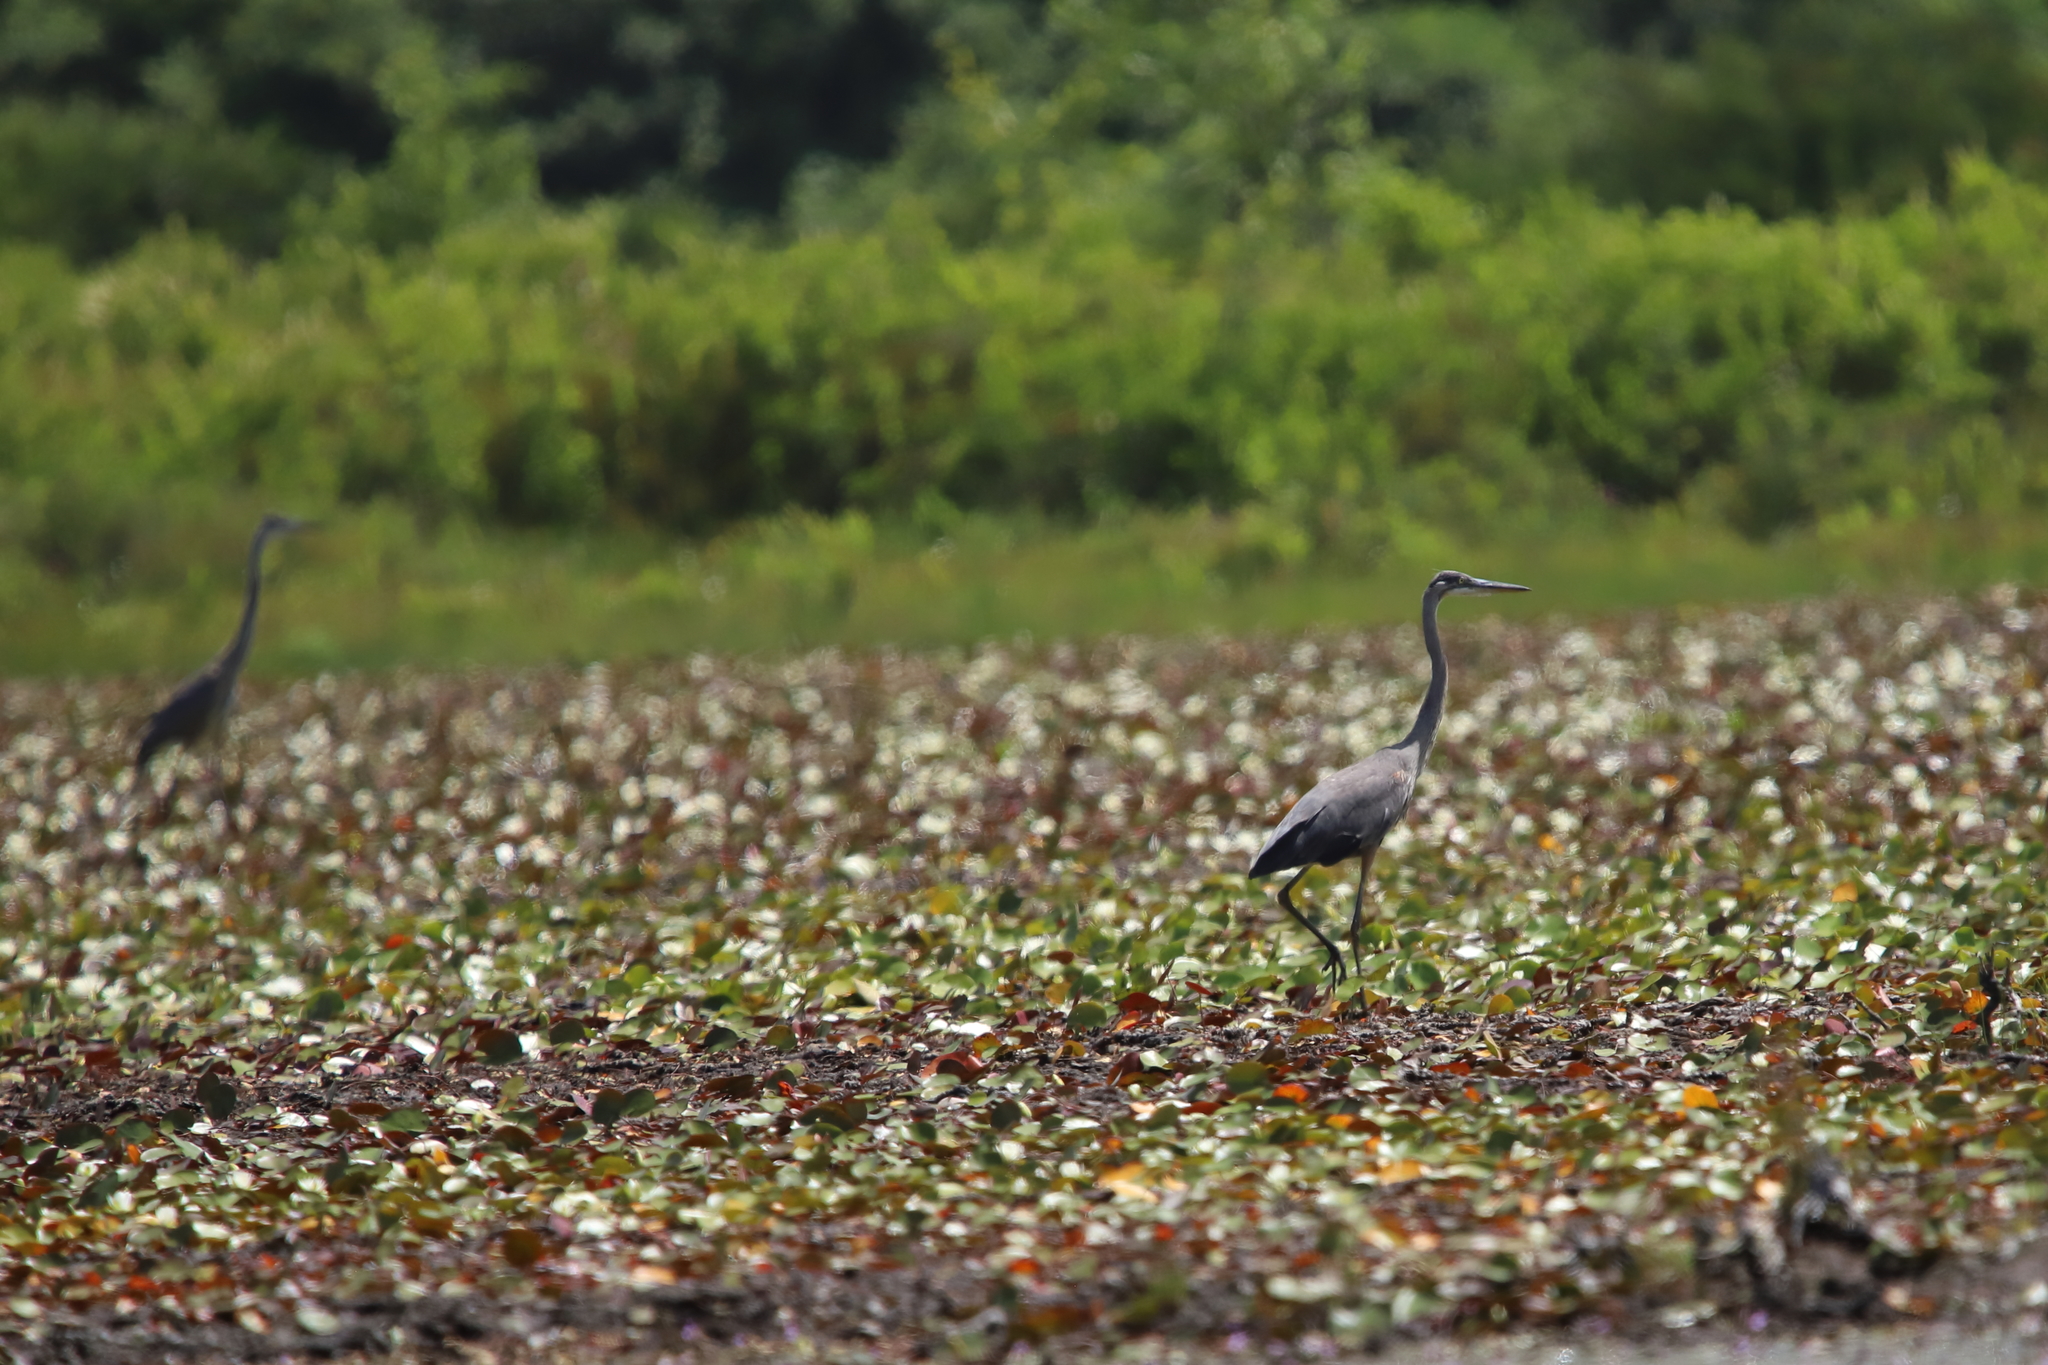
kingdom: Animalia
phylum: Chordata
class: Aves
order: Pelecaniformes
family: Ardeidae
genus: Ardea
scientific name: Ardea herodias
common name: Great blue heron
